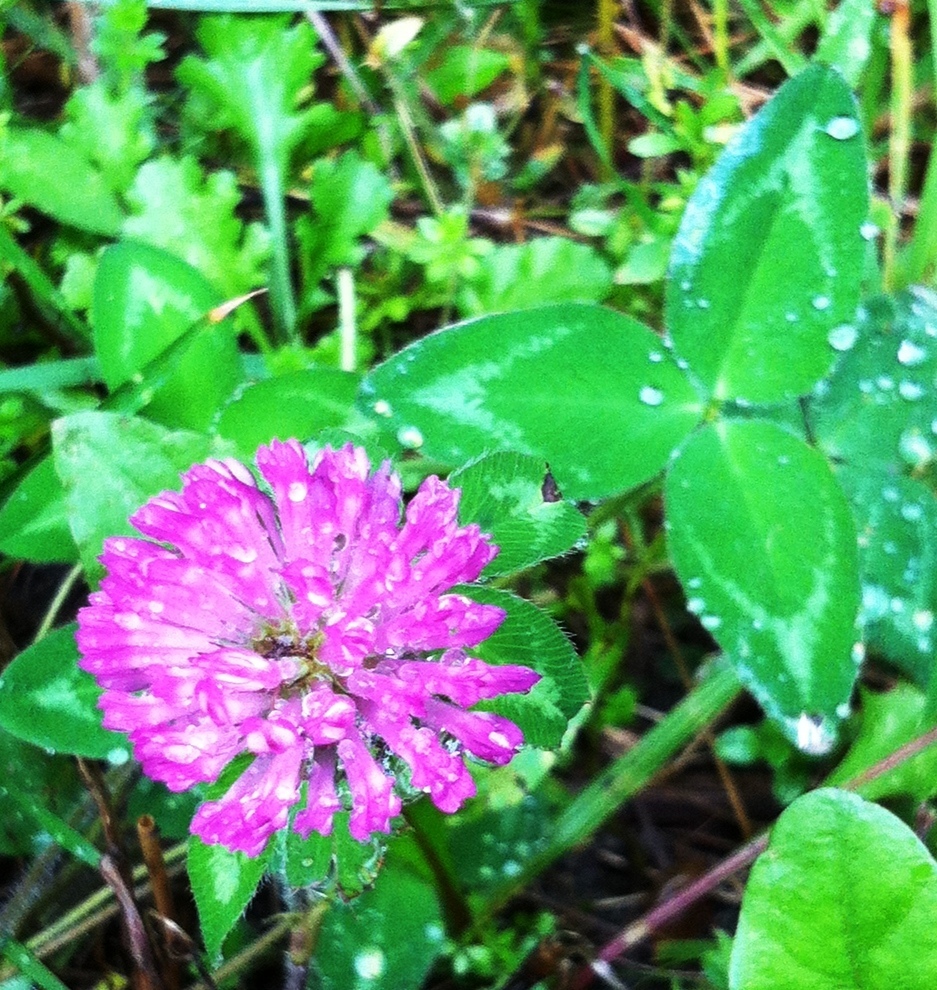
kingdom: Plantae
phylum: Tracheophyta
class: Magnoliopsida
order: Fabales
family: Fabaceae
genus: Trifolium
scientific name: Trifolium pratense
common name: Red clover
